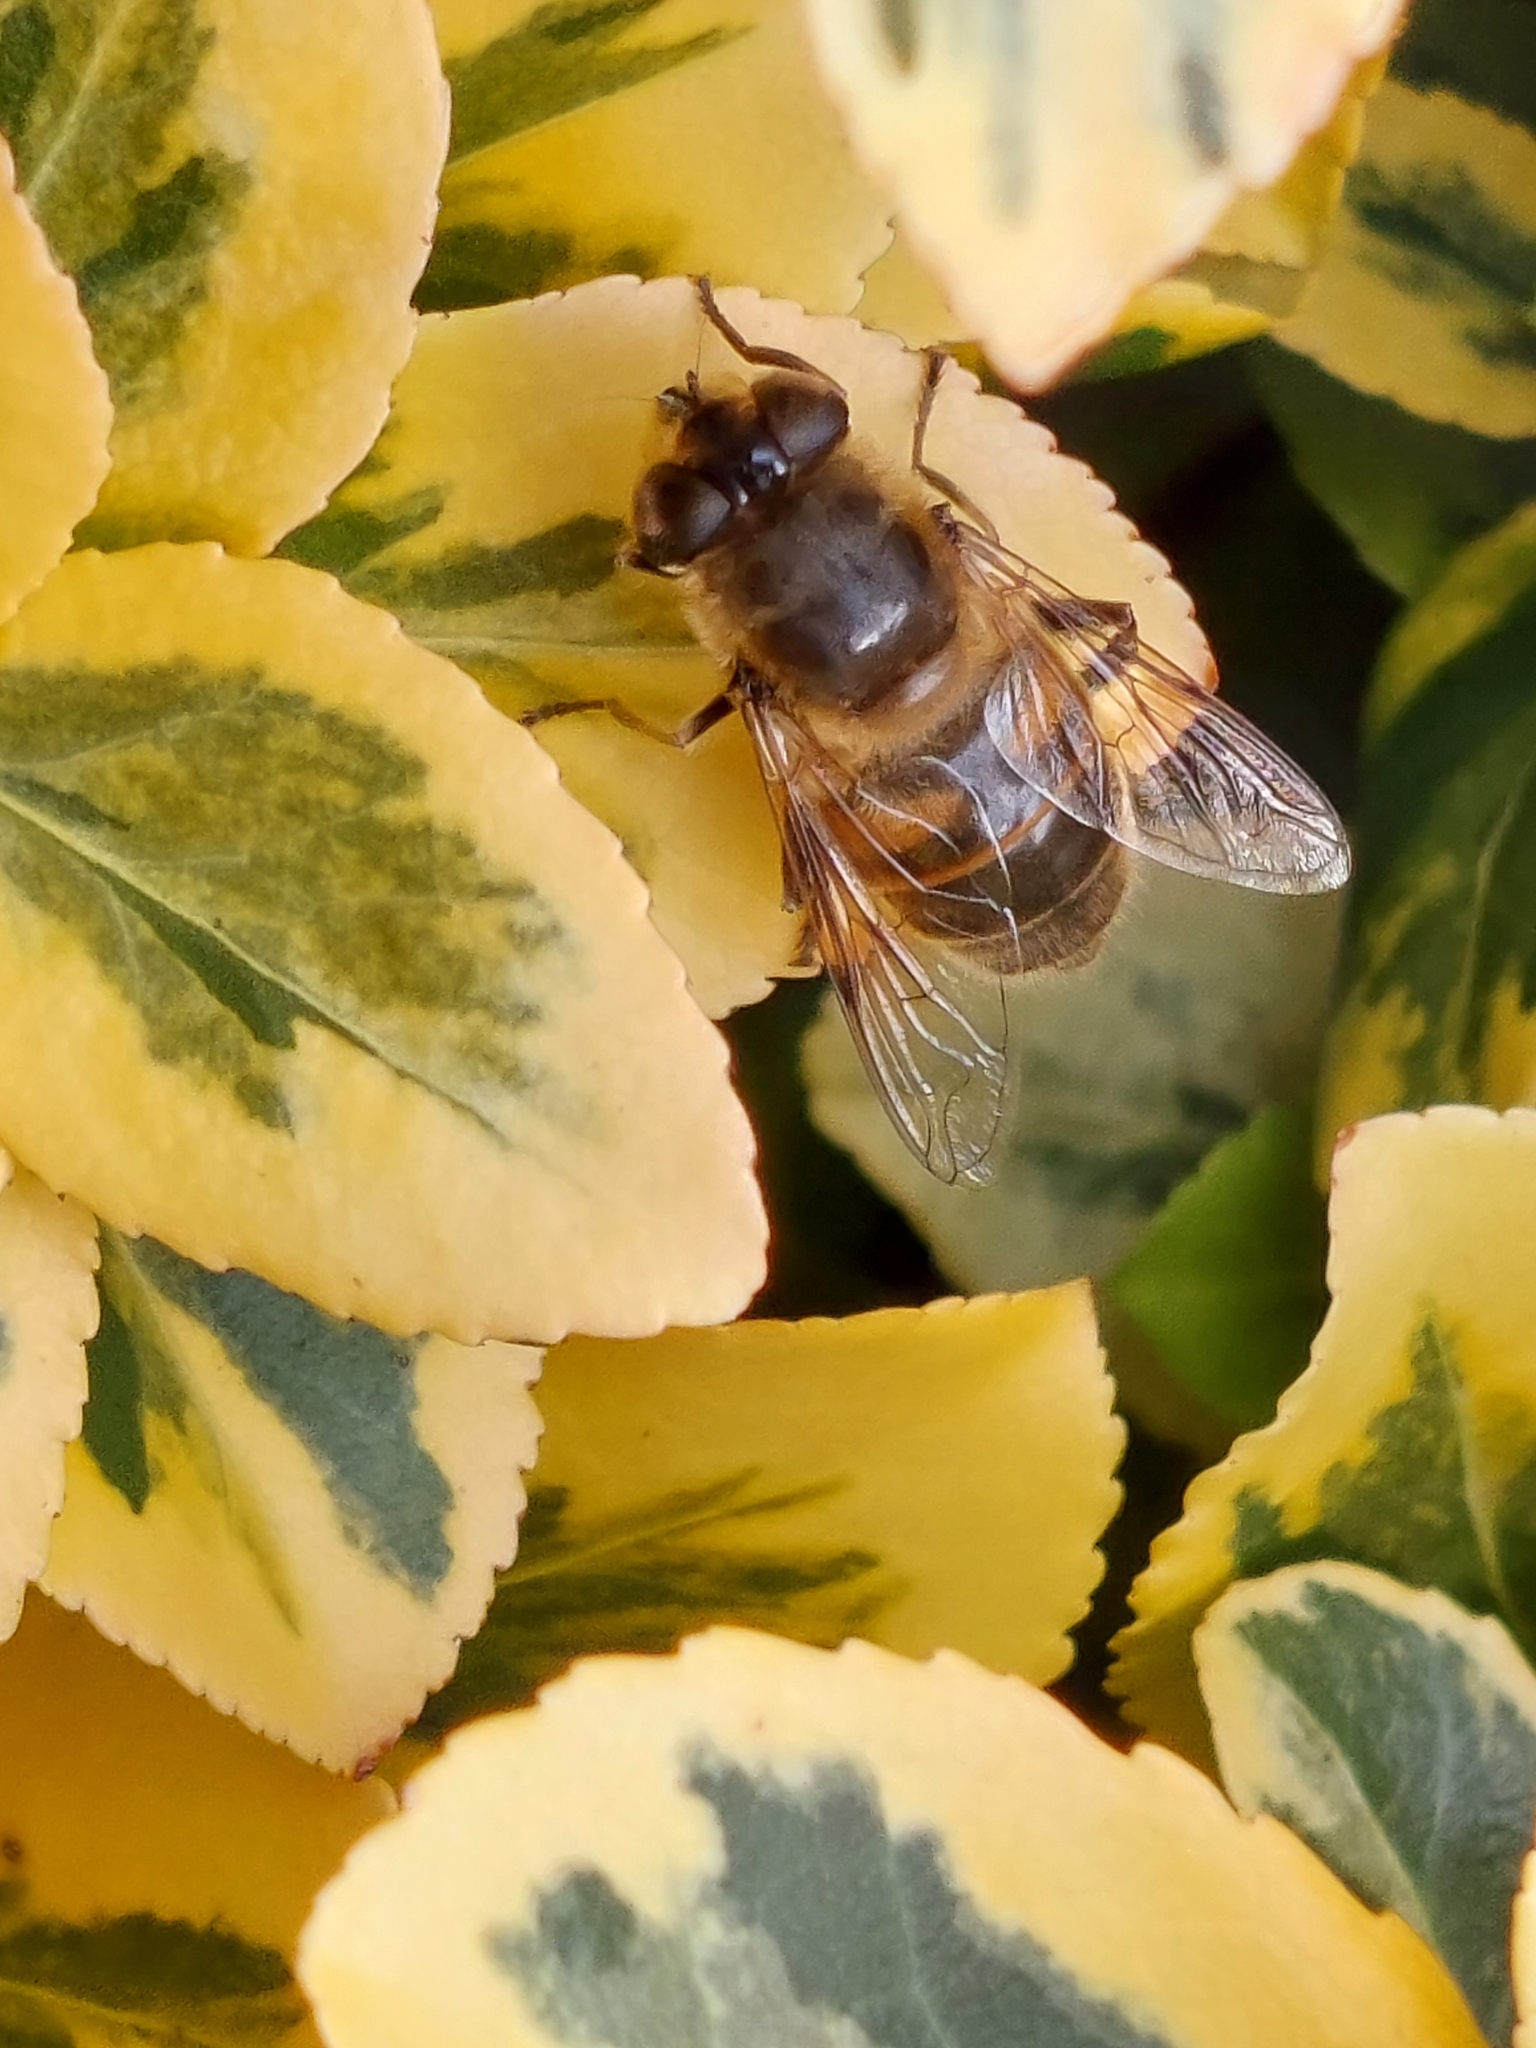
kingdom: Animalia
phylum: Arthropoda
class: Insecta
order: Diptera
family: Syrphidae
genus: Eristalis
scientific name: Eristalis tenax
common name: Drone fly
